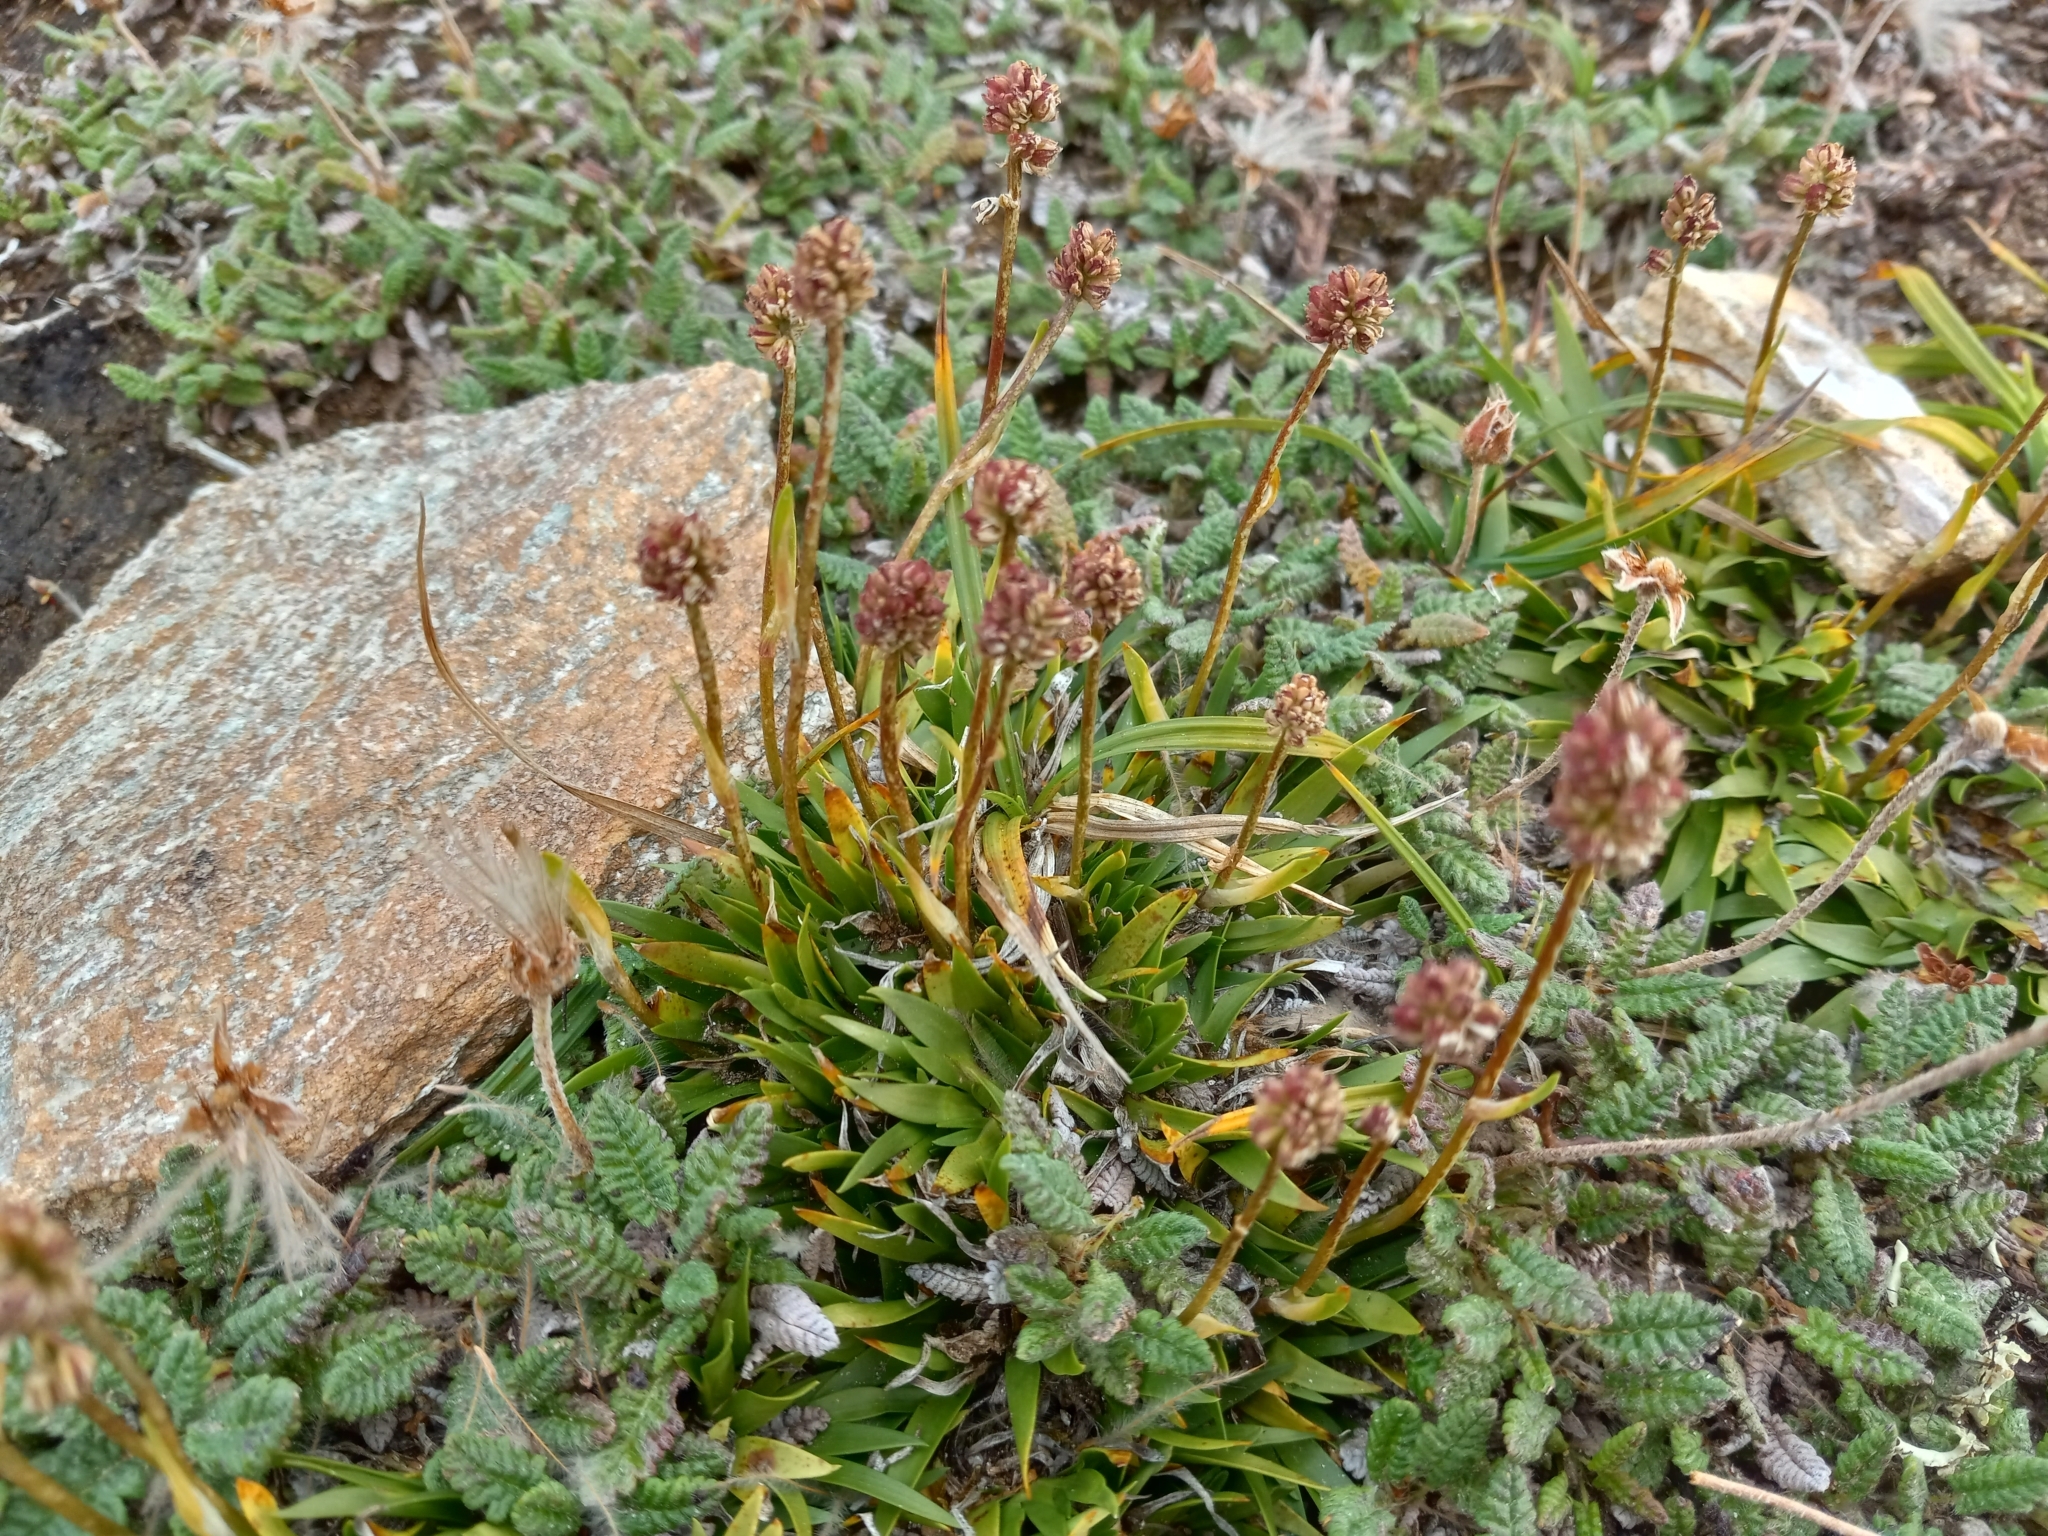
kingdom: Plantae
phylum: Tracheophyta
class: Liliopsida
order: Alismatales
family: Tofieldiaceae
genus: Tofieldia
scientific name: Tofieldia coccinea
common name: Northern false asphodel
